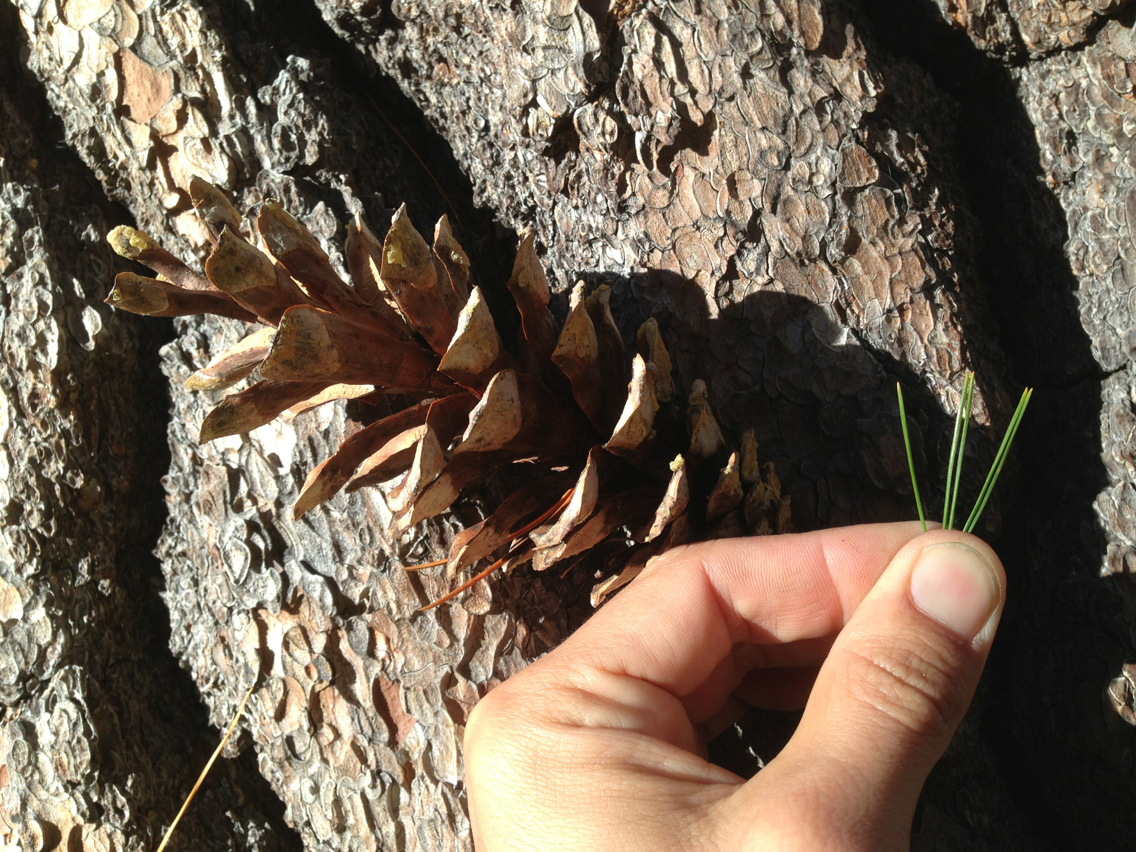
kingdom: Plantae
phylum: Tracheophyta
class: Pinopsida
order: Pinales
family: Pinaceae
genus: Pinus
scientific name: Pinus monticola
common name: Western white pine
